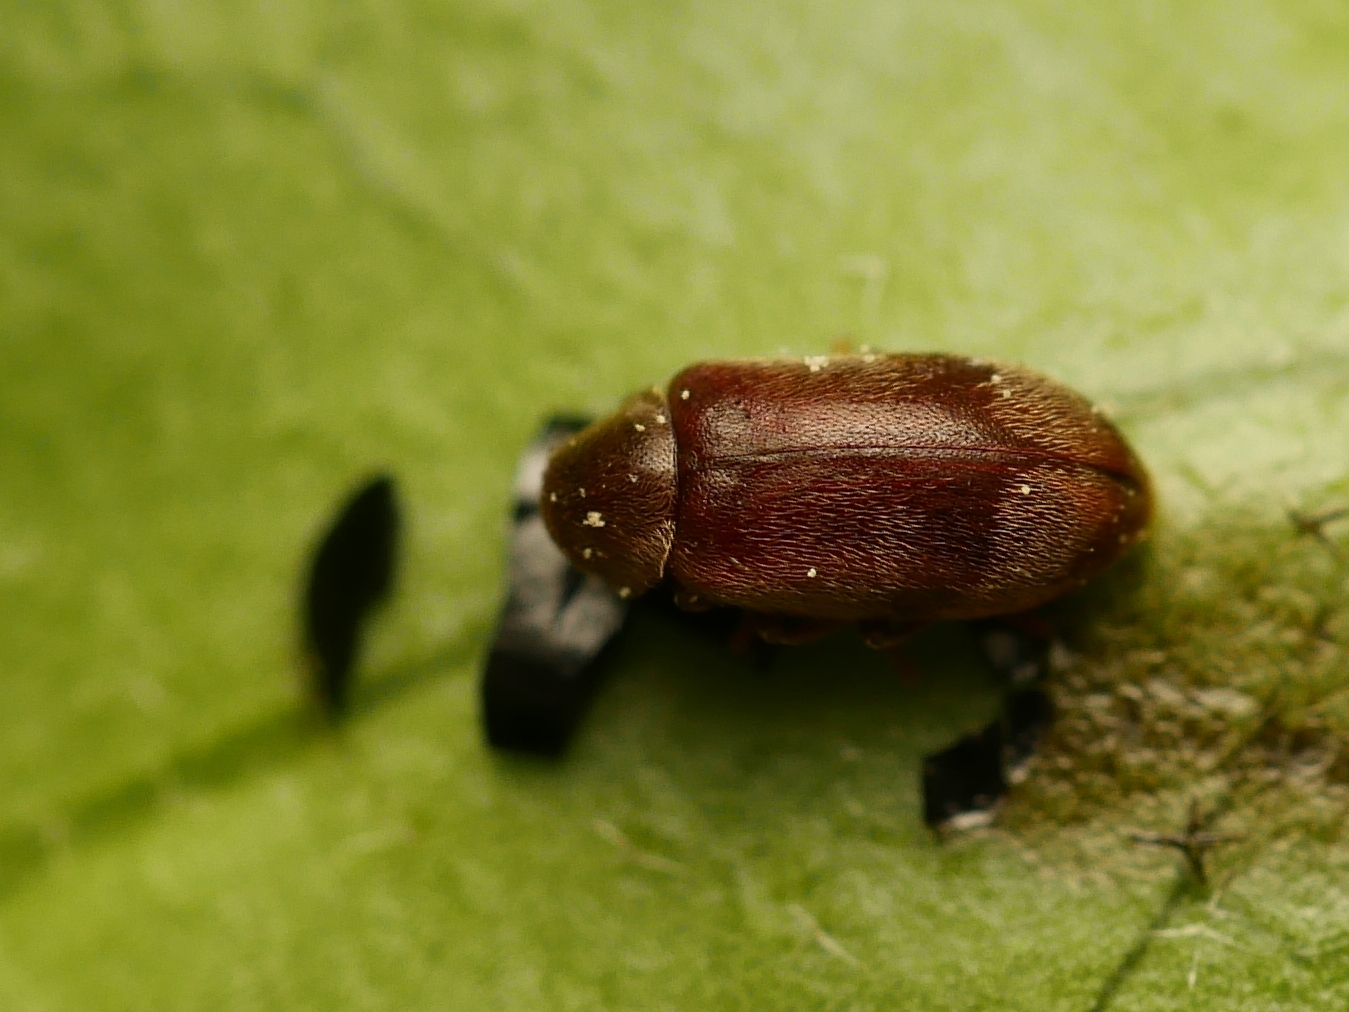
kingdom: Animalia
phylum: Arthropoda
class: Insecta
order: Coleoptera
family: Ptinidae
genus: Ochina
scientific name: Ochina ptinoides
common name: Ivy boring beetle
